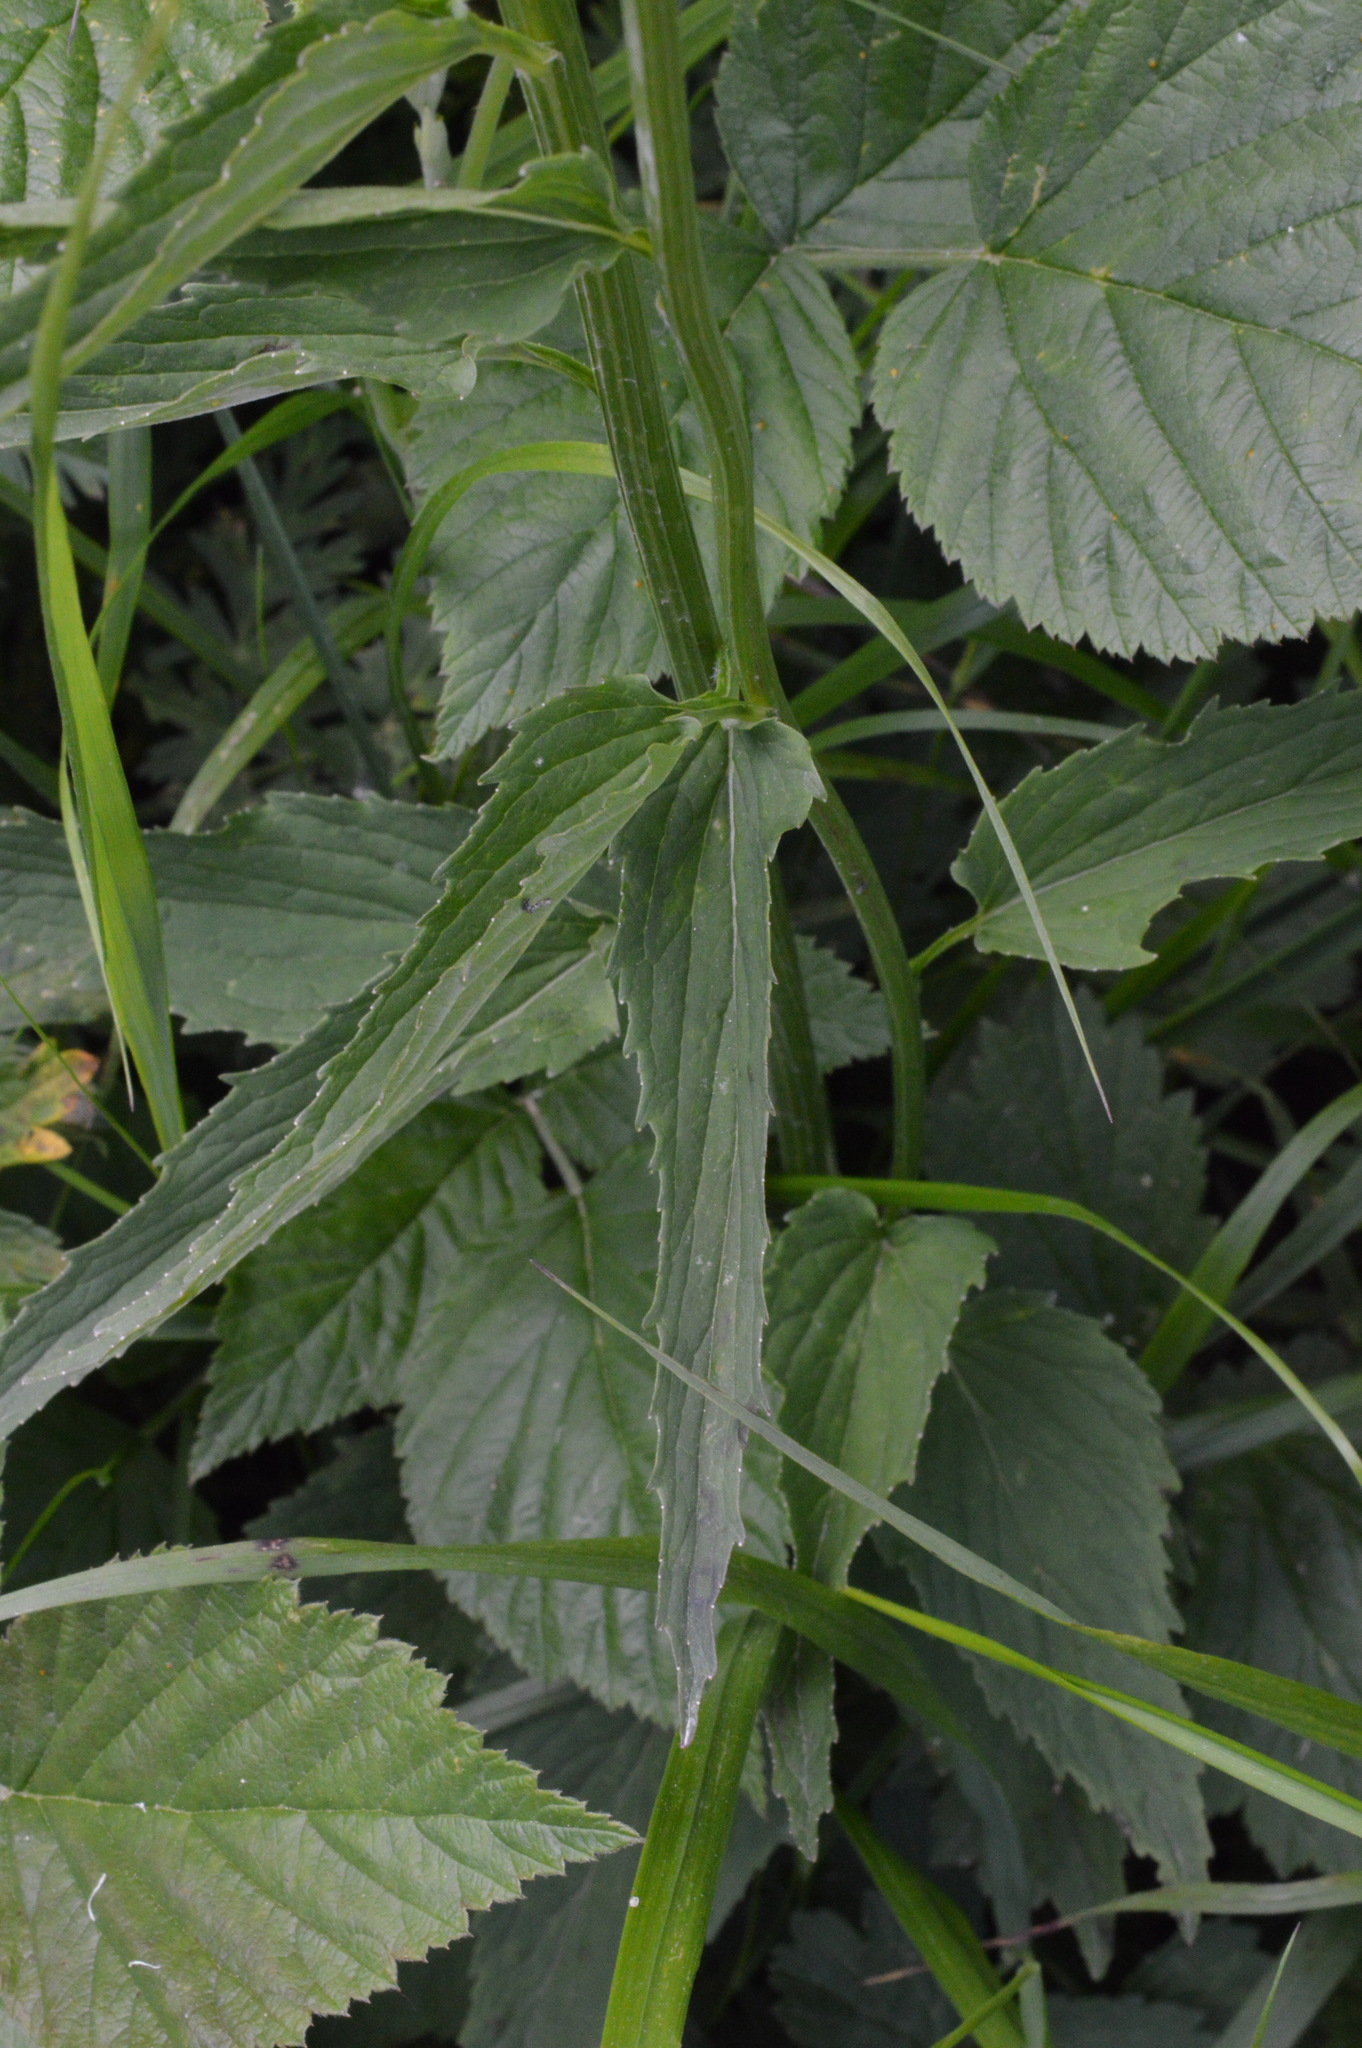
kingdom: Plantae
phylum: Tracheophyta
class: Magnoliopsida
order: Asterales
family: Campanulaceae
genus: Phyteuma
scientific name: Phyteuma ovatum
